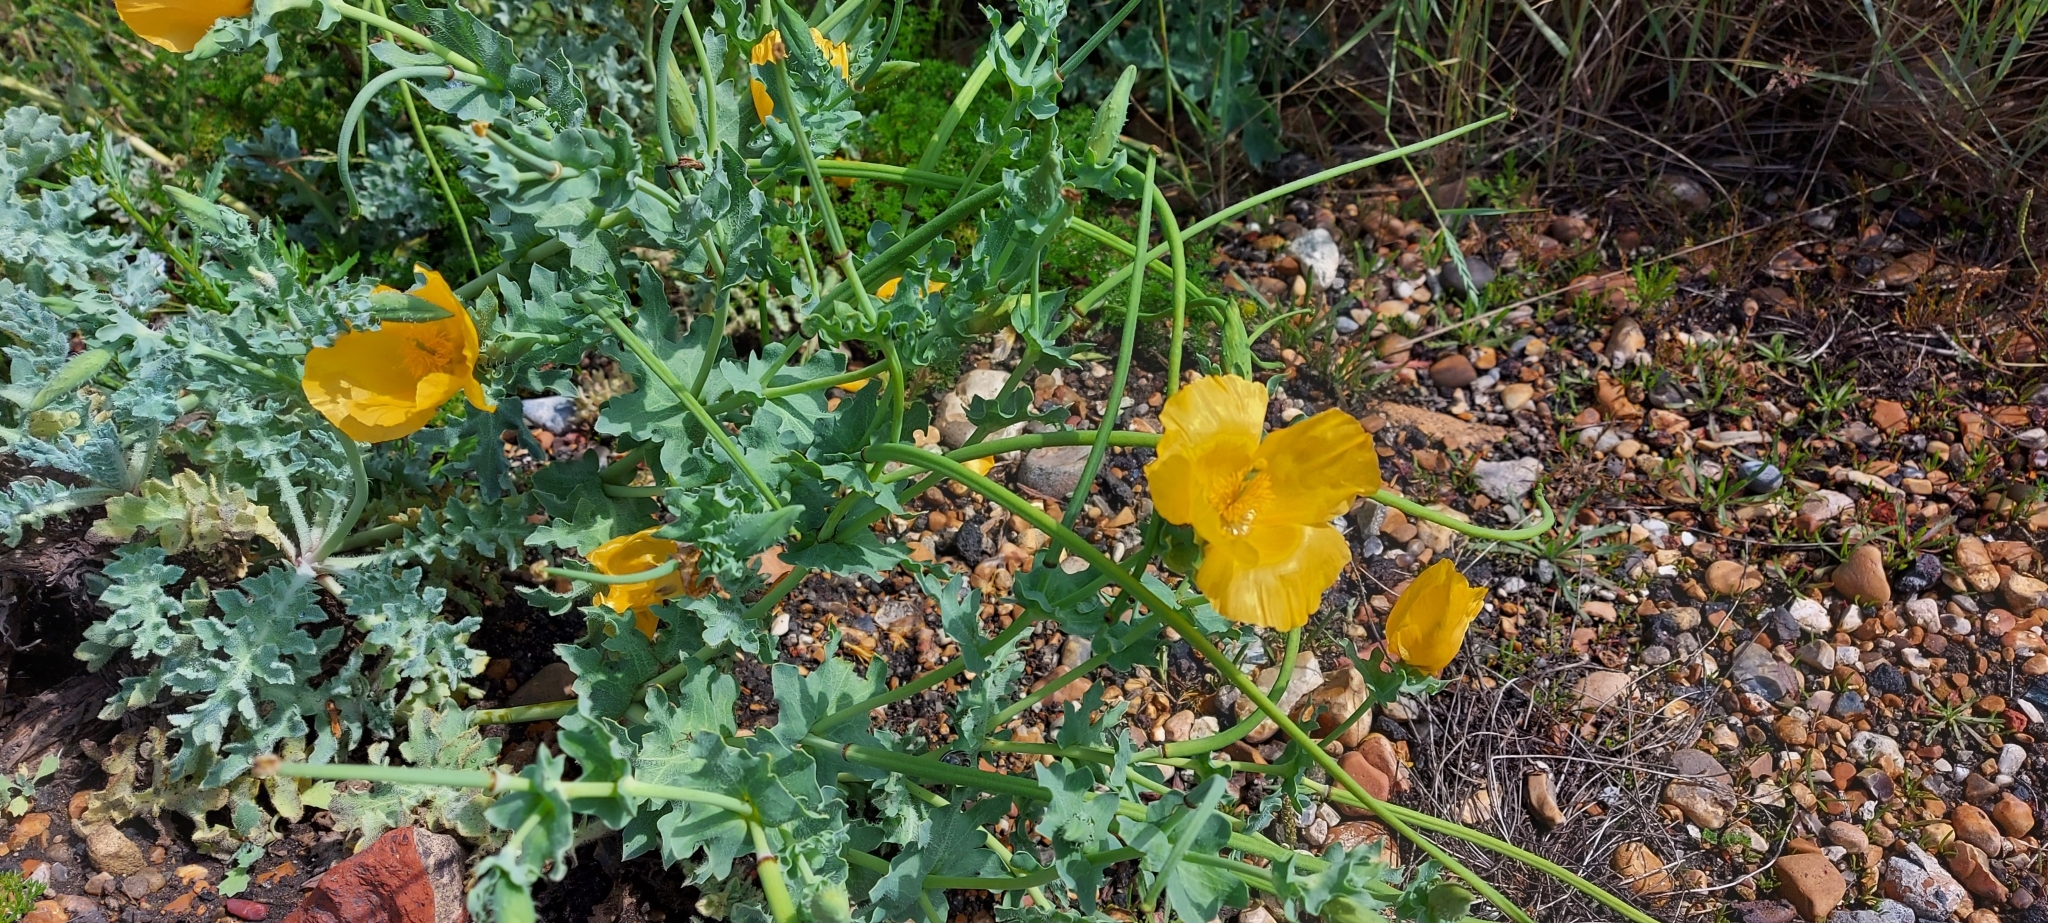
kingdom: Plantae
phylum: Tracheophyta
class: Magnoliopsida
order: Ranunculales
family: Papaveraceae
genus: Glaucium
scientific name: Glaucium flavum
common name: Yellow horned-poppy
